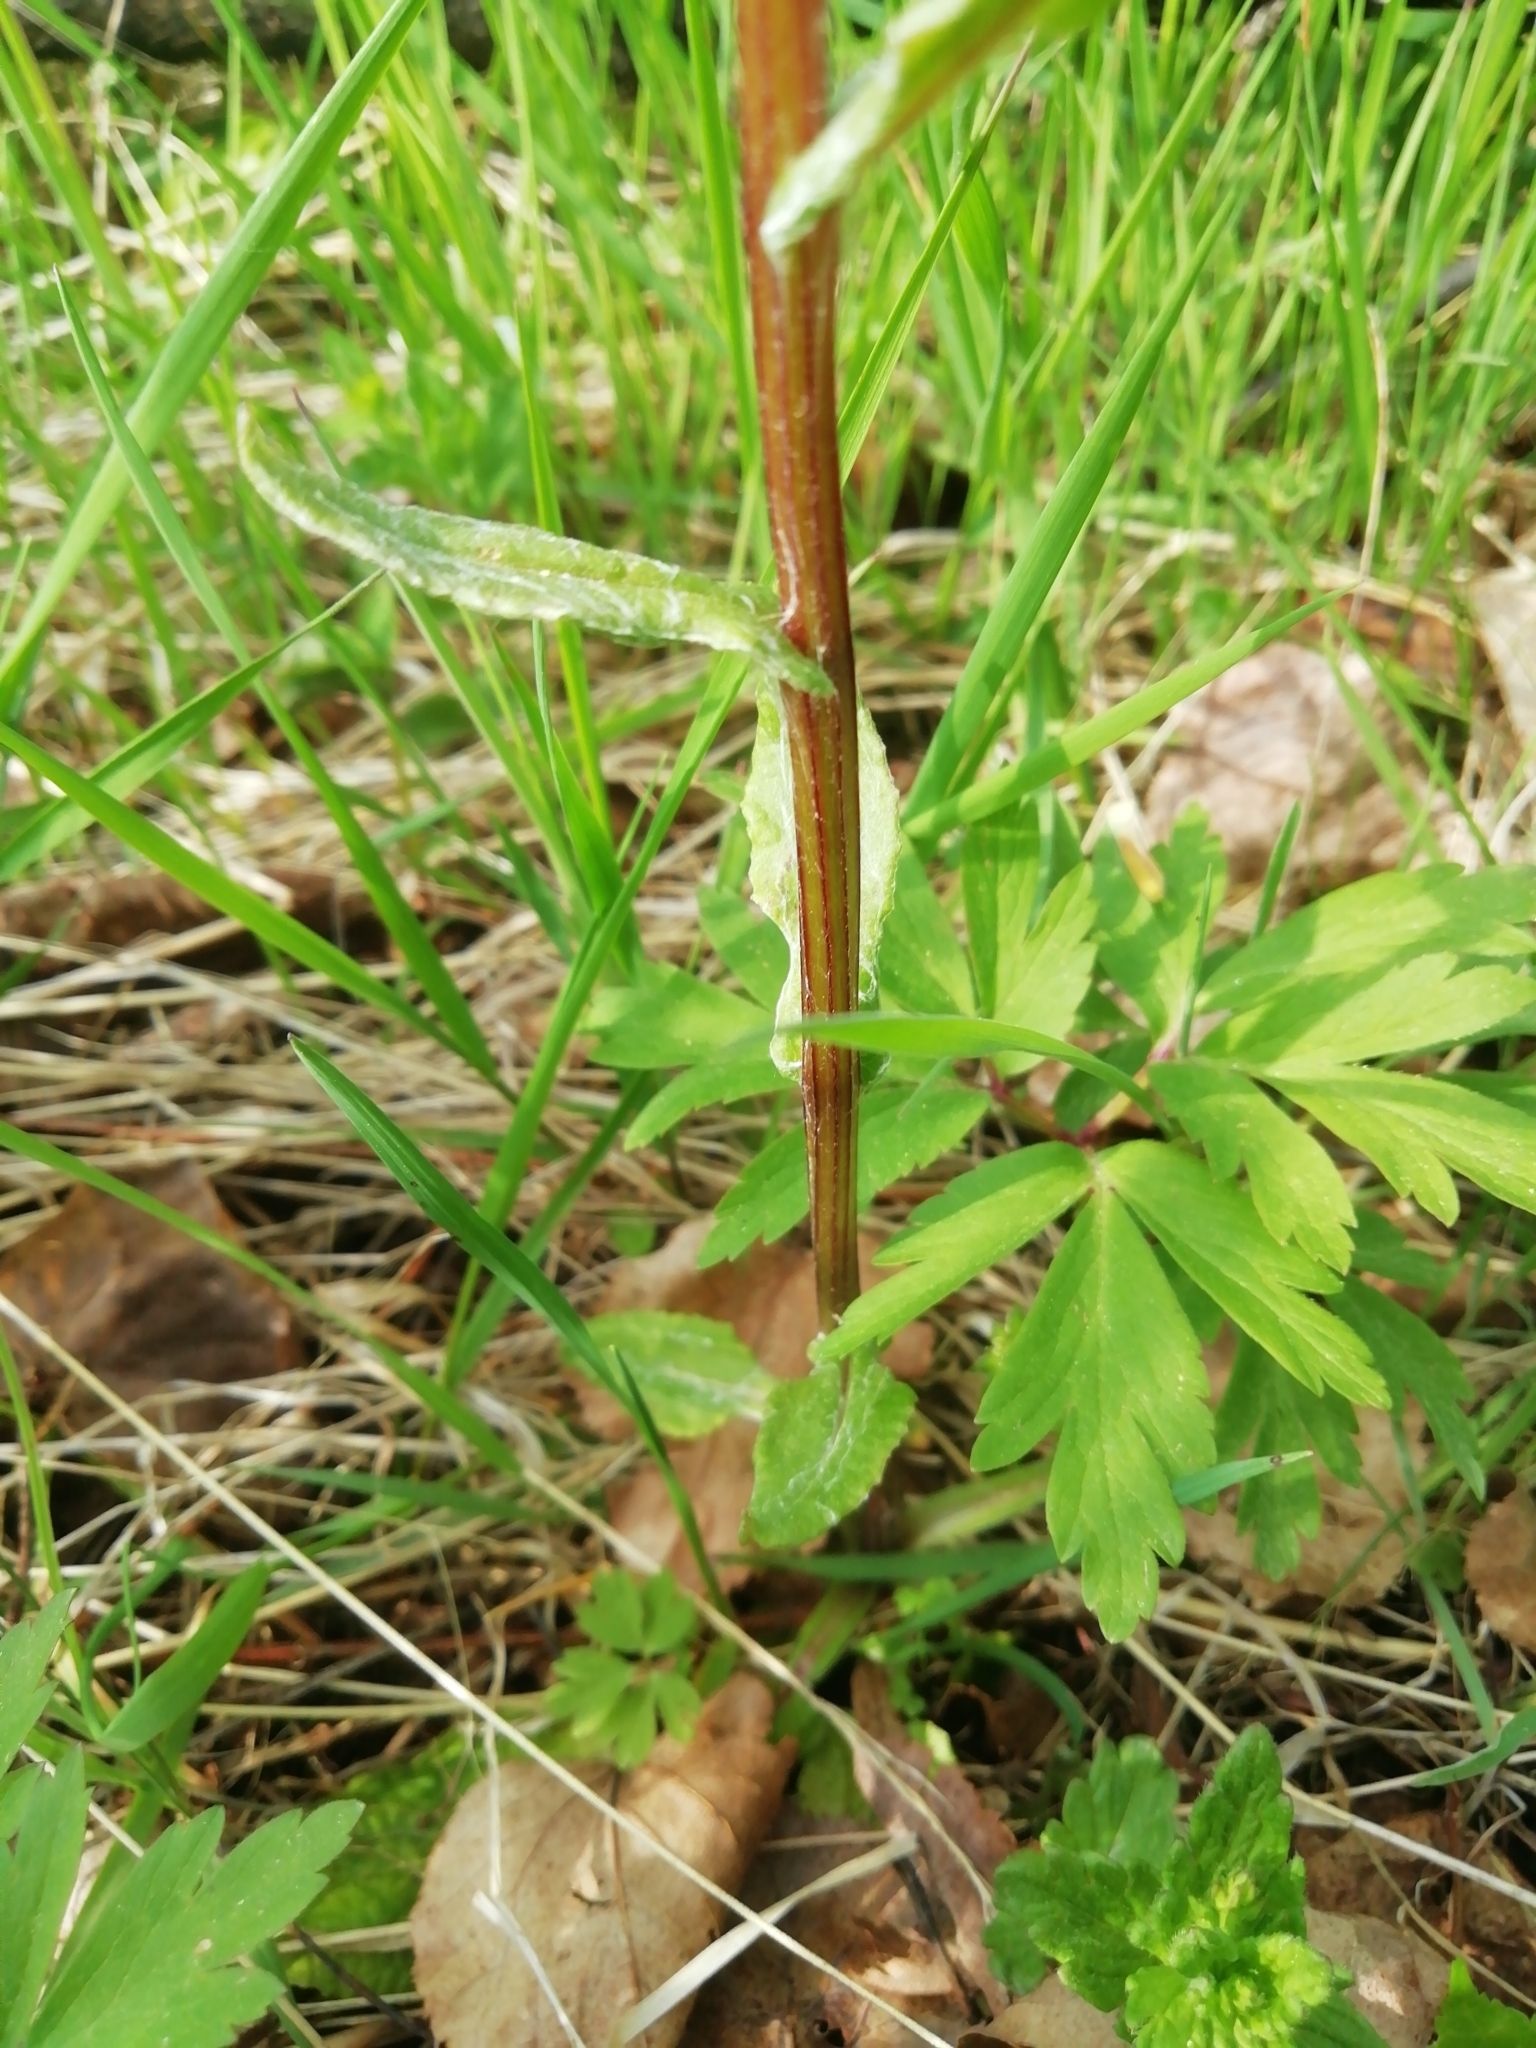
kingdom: Plantae
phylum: Tracheophyta
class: Magnoliopsida
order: Asterales
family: Asteraceae
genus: Tephroseris
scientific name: Tephroseris crispa
